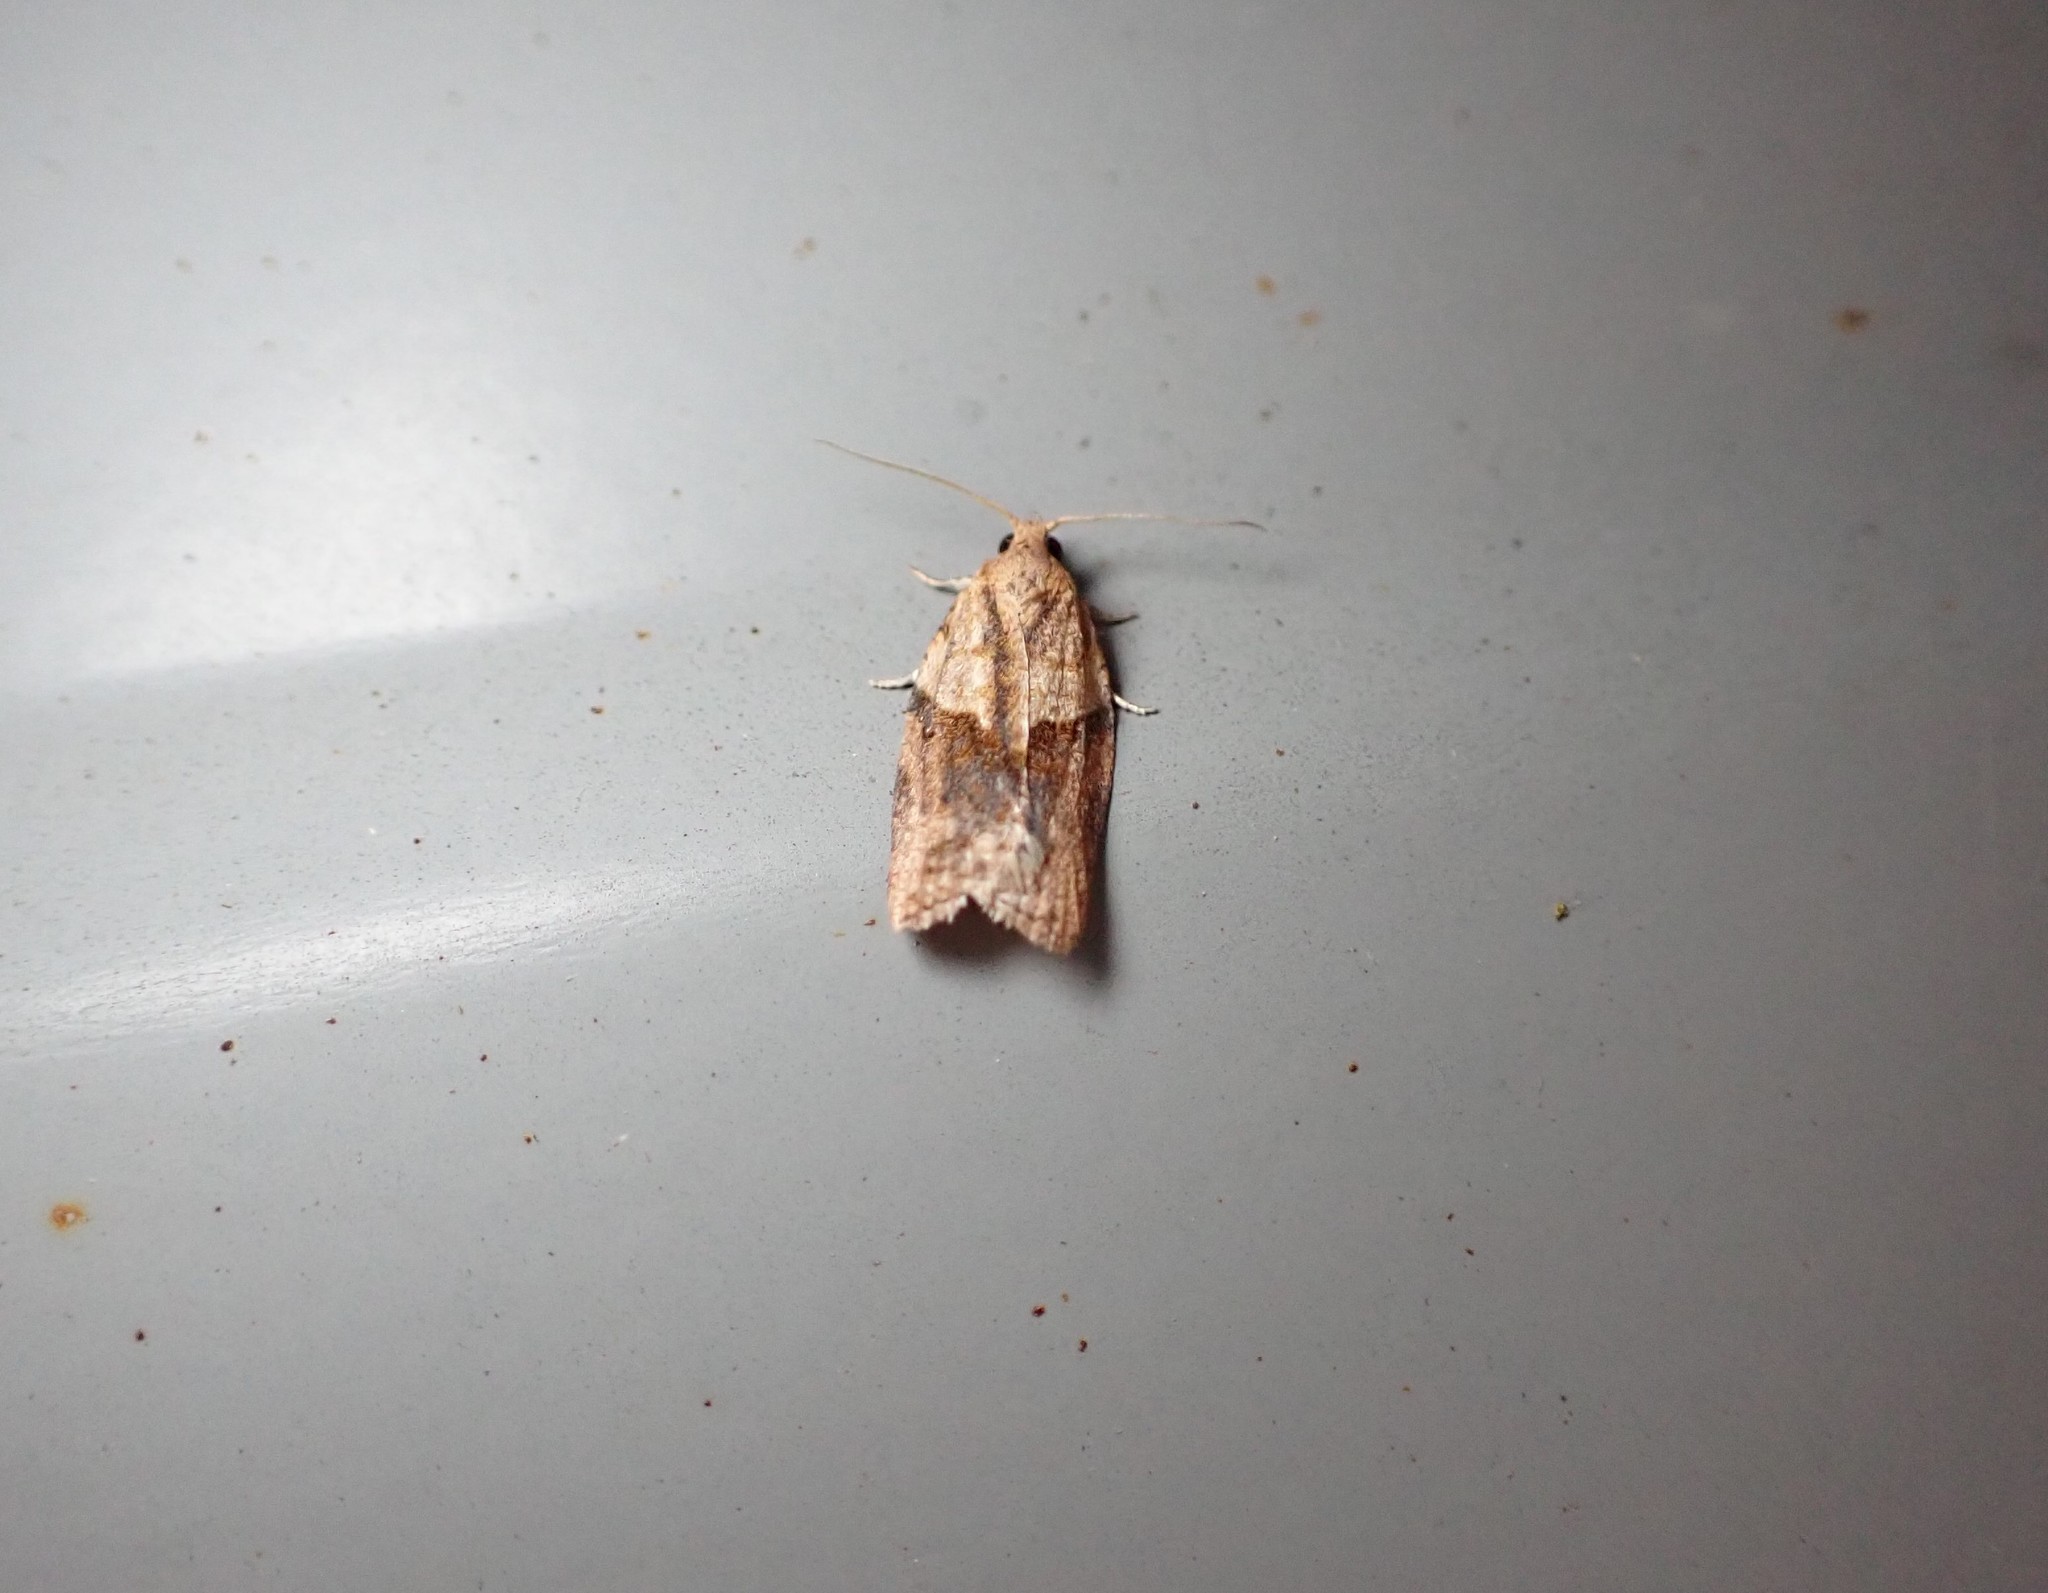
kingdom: Animalia
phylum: Arthropoda
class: Insecta
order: Lepidoptera
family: Tortricidae
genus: Epiphyas
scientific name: Epiphyas postvittana
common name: Light brown apple moth
